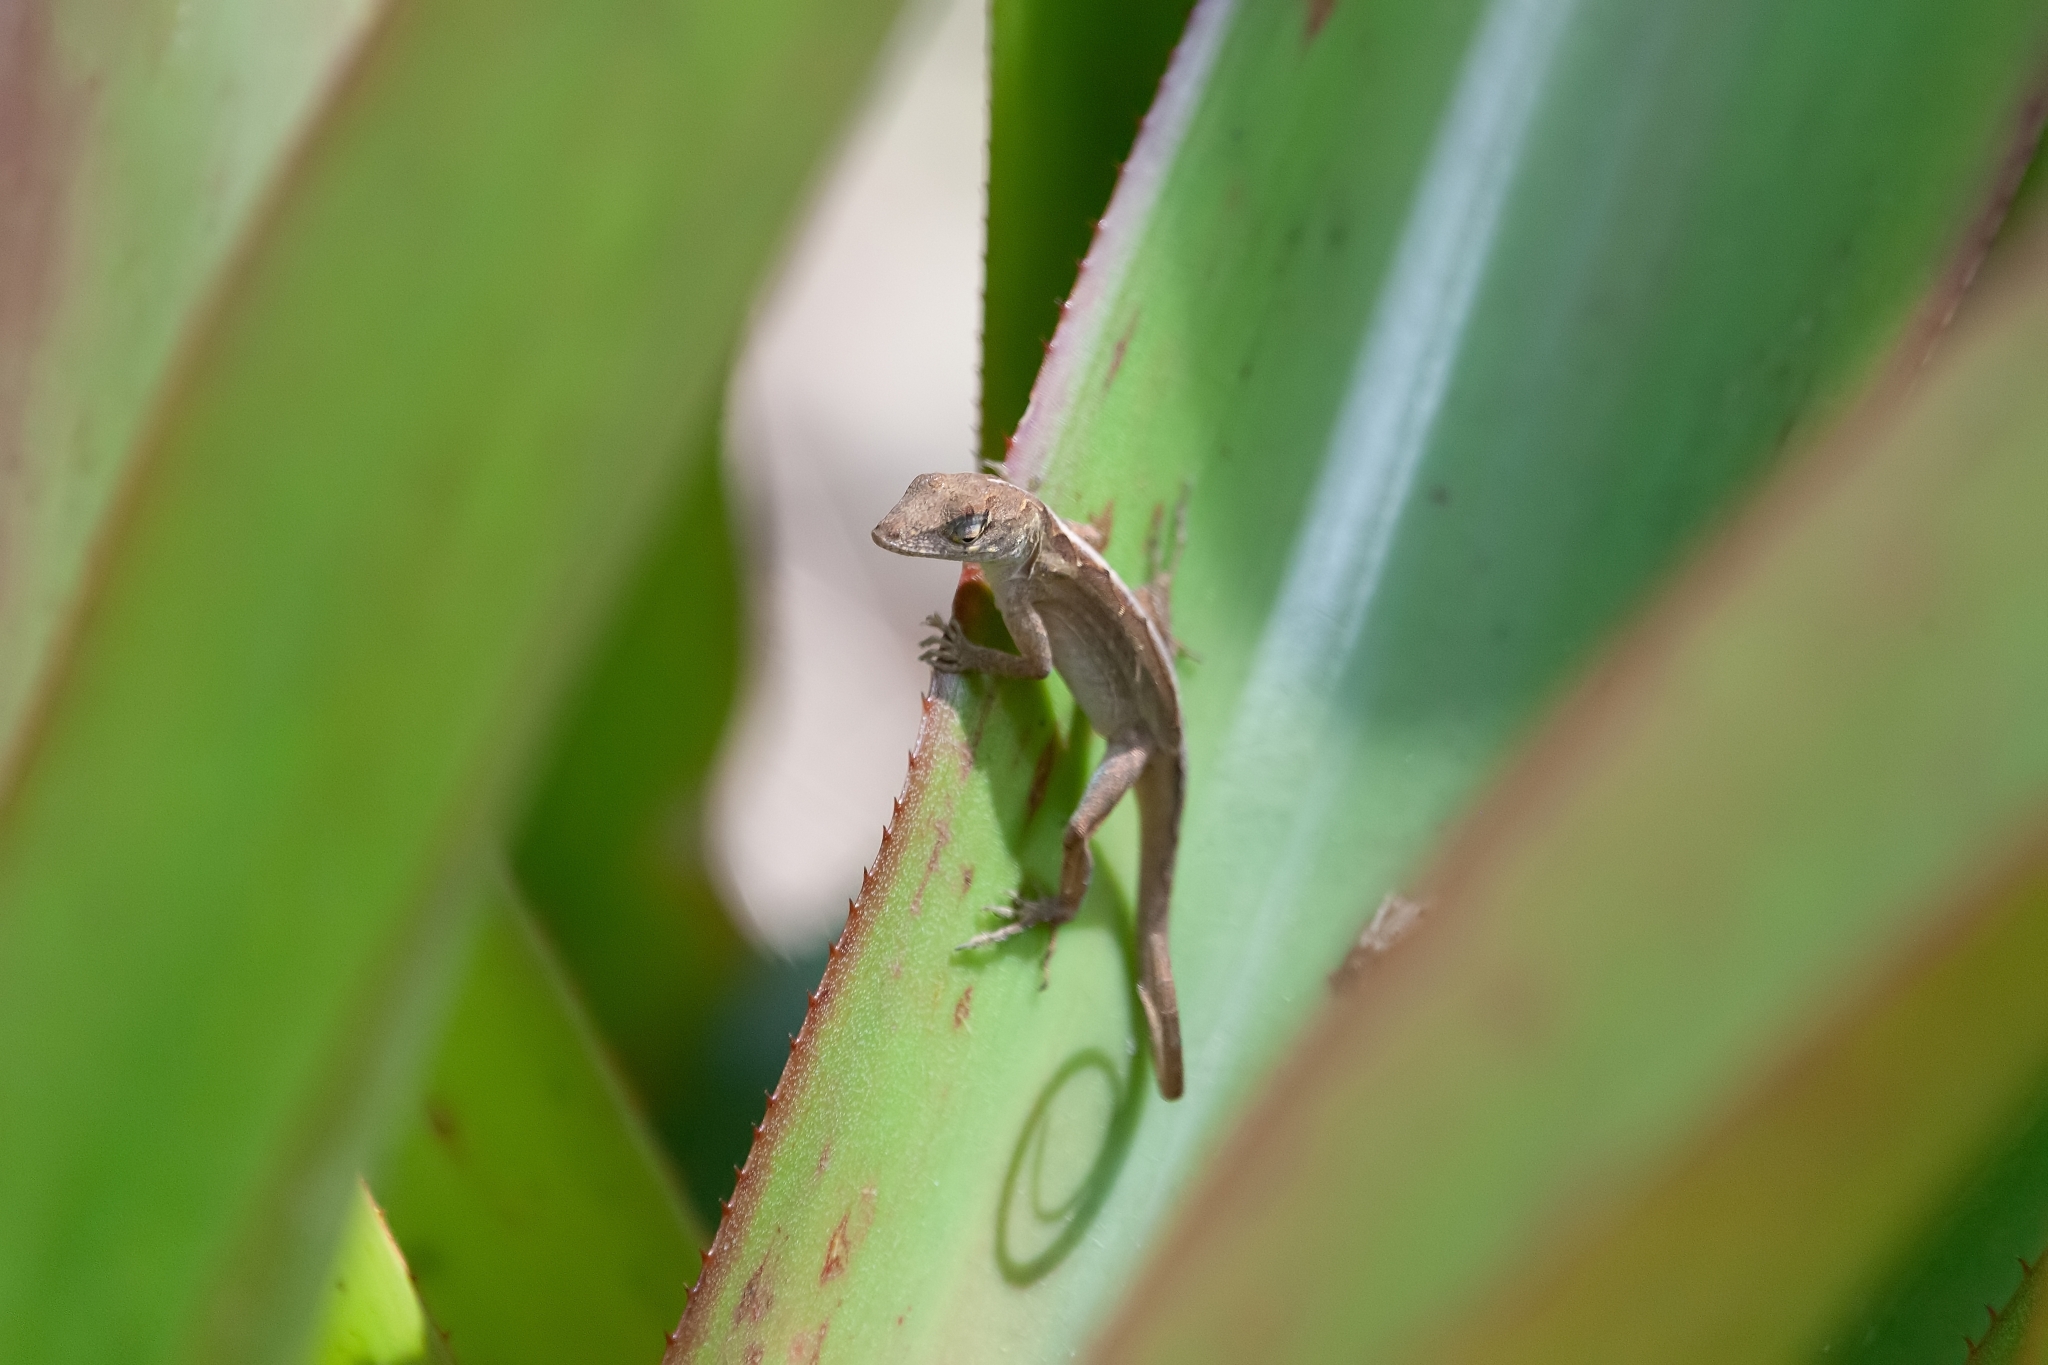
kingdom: Animalia
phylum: Chordata
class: Squamata
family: Dactyloidae
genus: Anolis
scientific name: Anolis sagrei
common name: Brown anole
